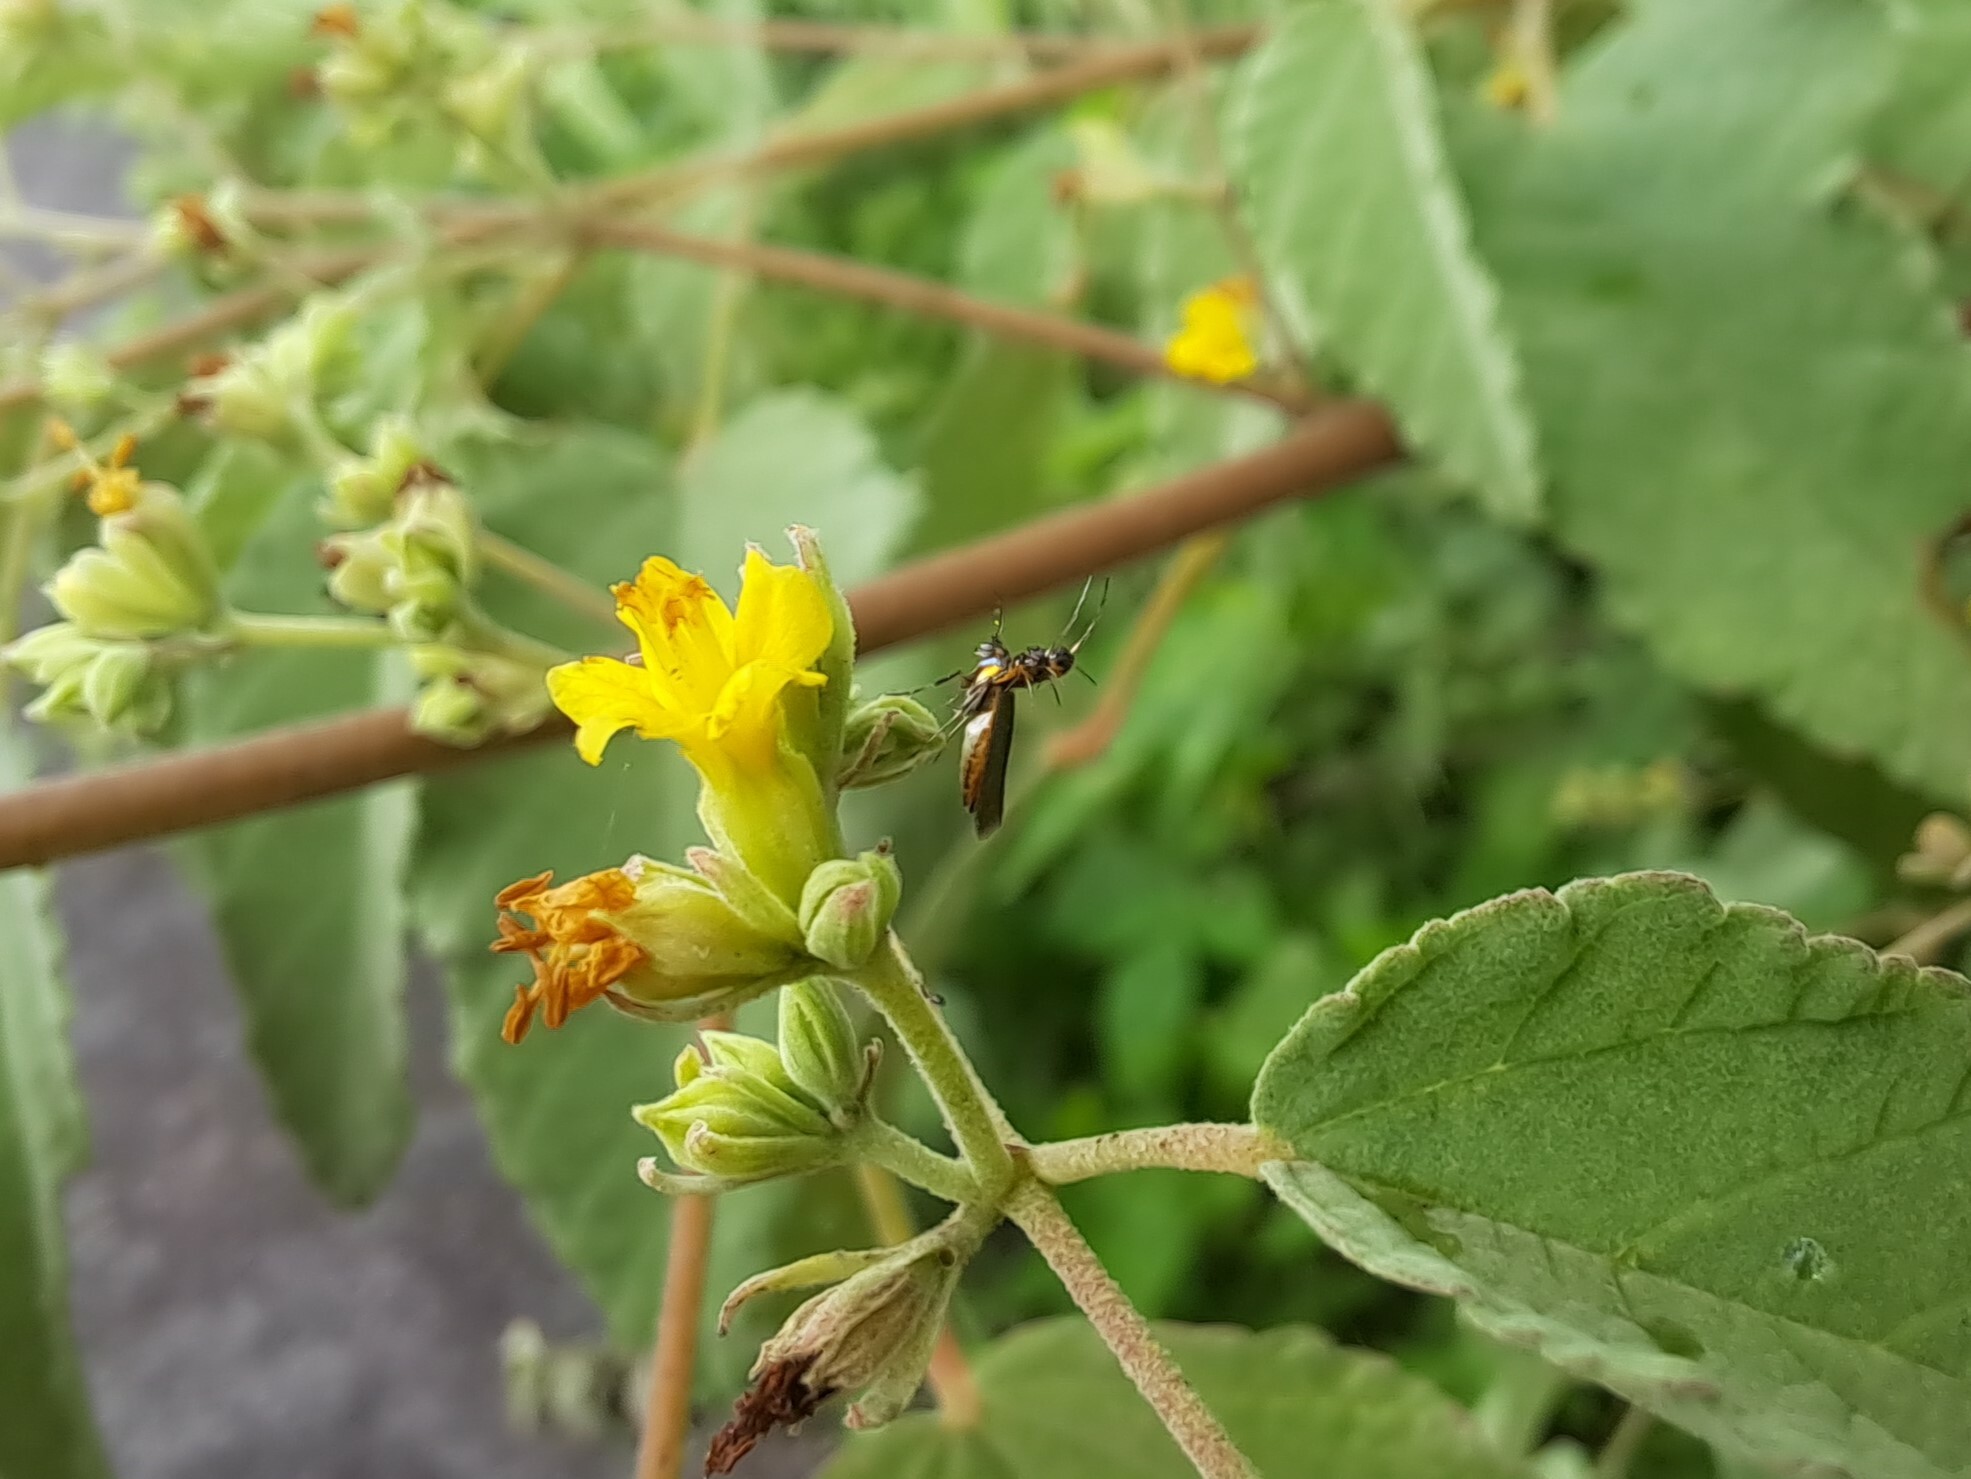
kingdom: Animalia
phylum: Arthropoda
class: Insecta
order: Lepidoptera
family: Heliodinidae
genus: Heliodines
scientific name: Heliodines
